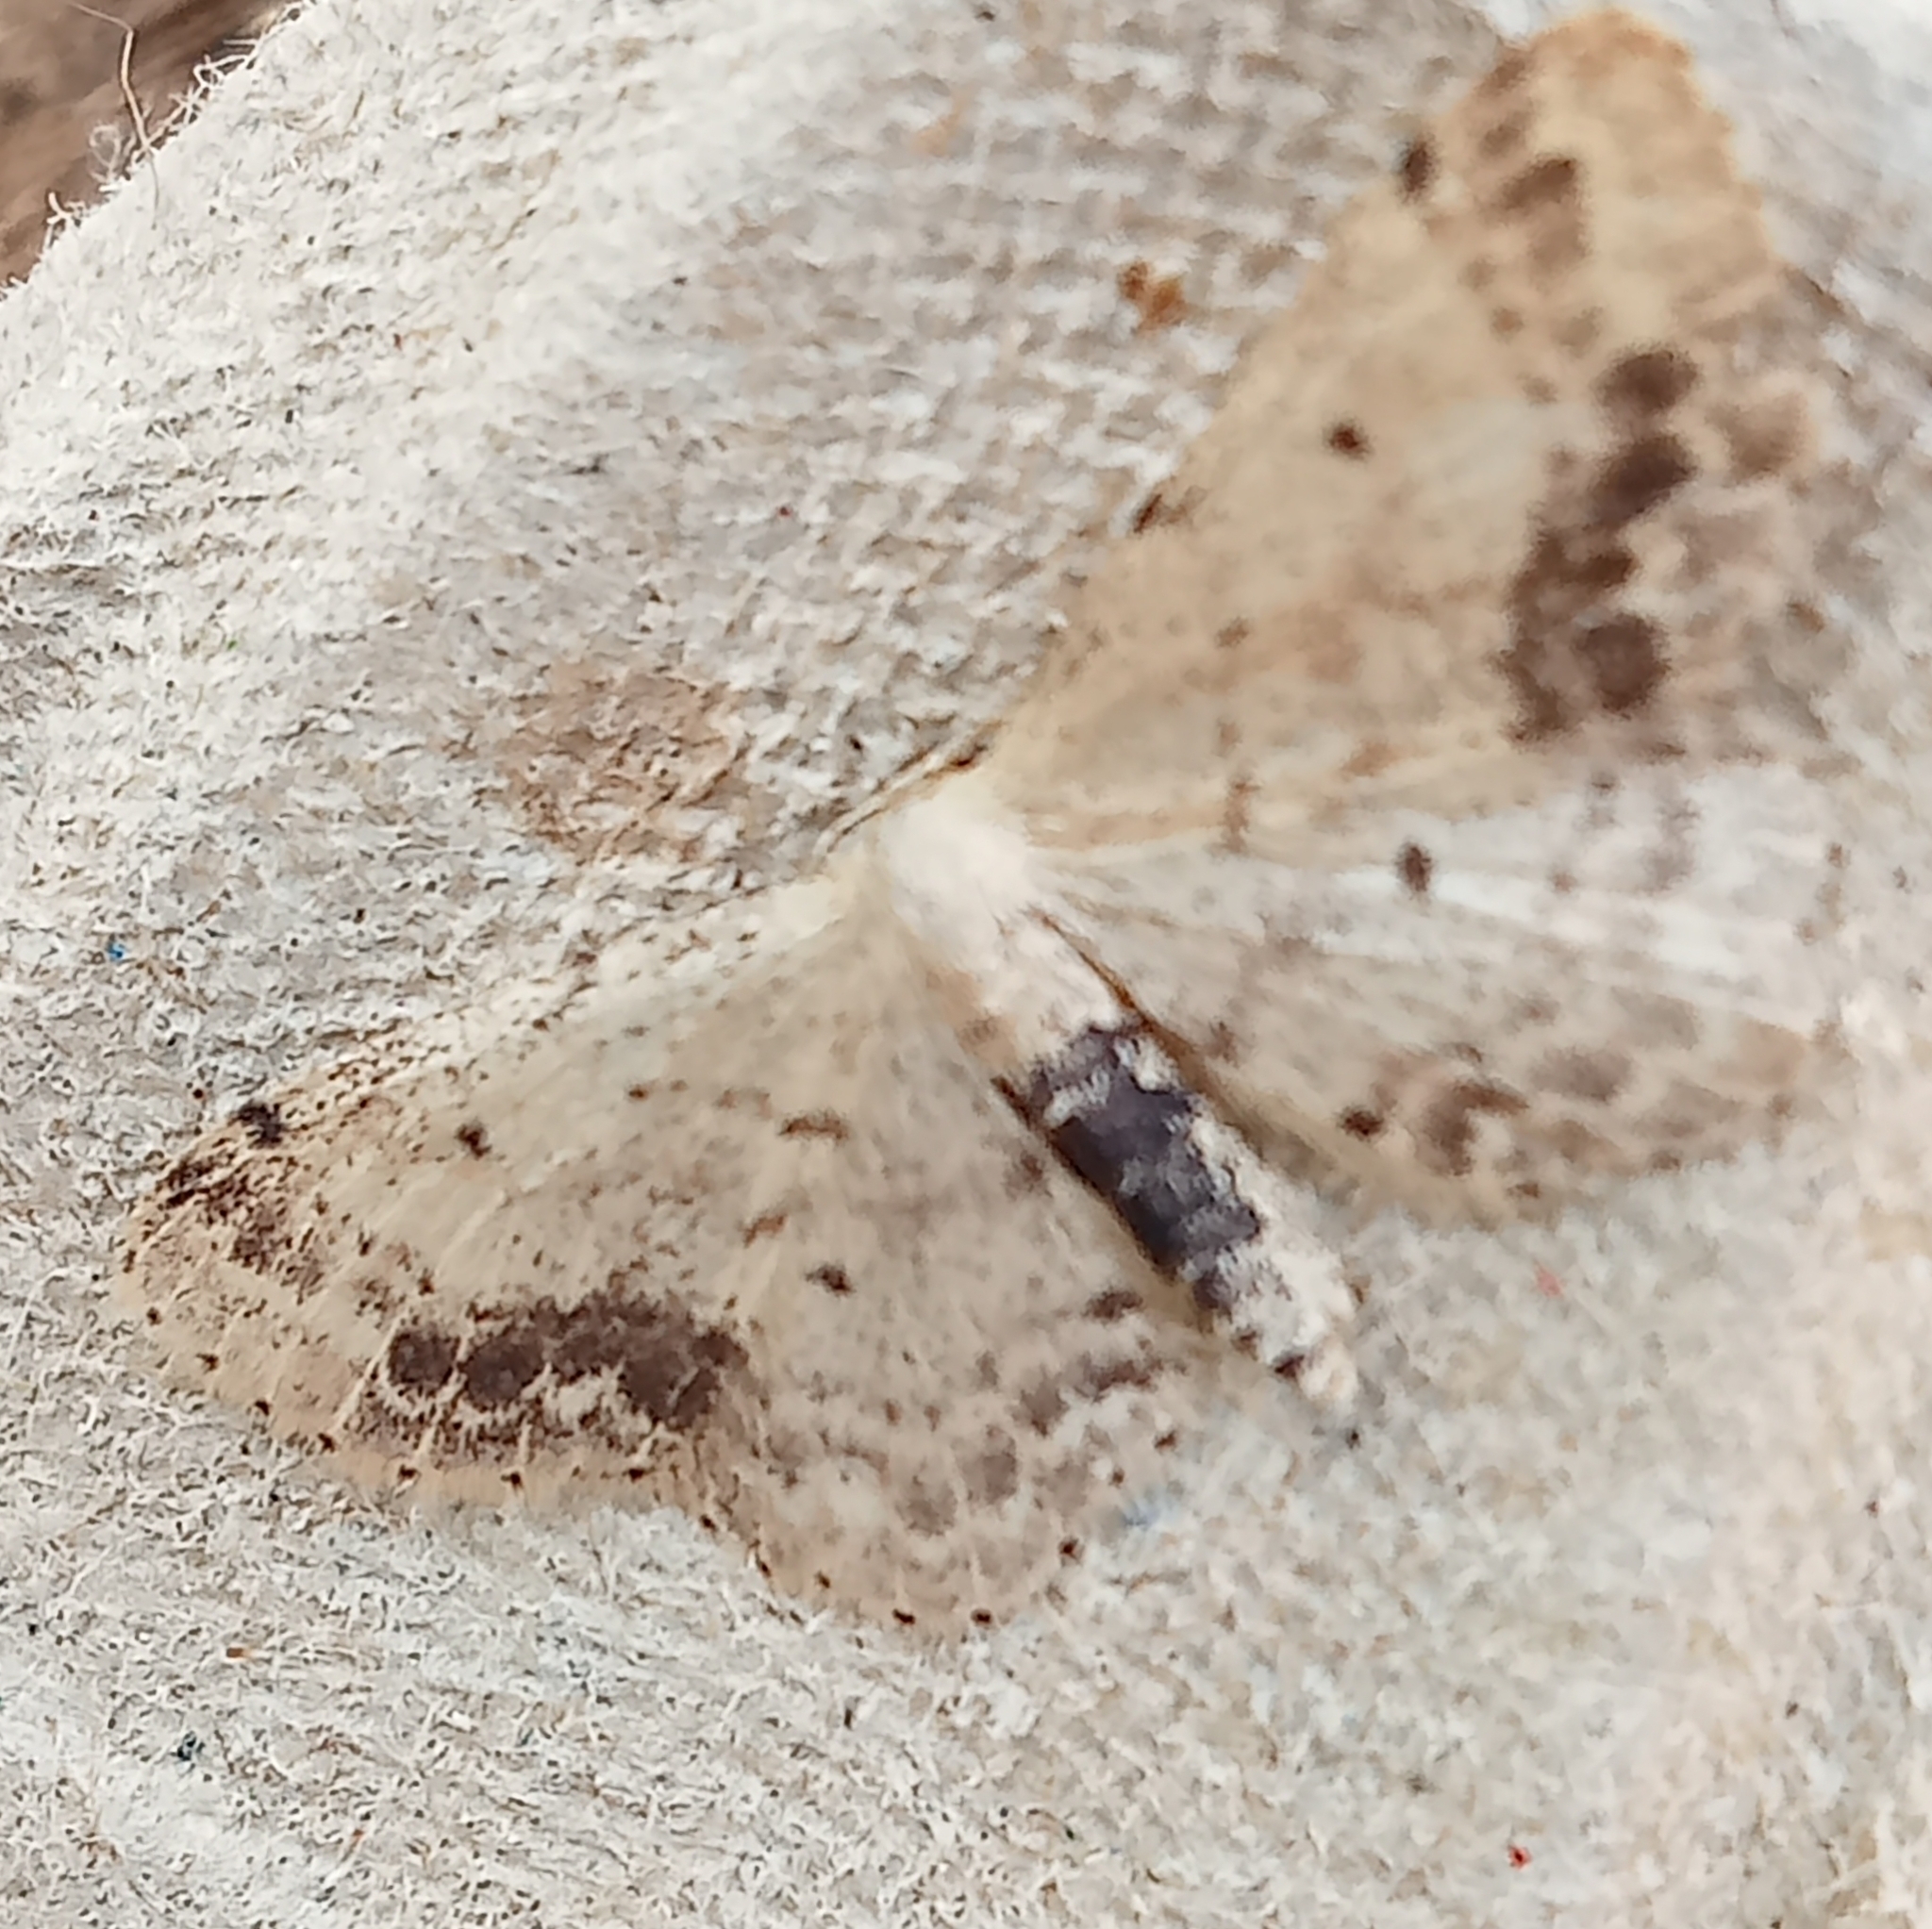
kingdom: Animalia
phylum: Arthropoda
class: Insecta
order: Lepidoptera
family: Geometridae
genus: Idaea
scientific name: Idaea dimidiata
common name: Single-dotted wave
